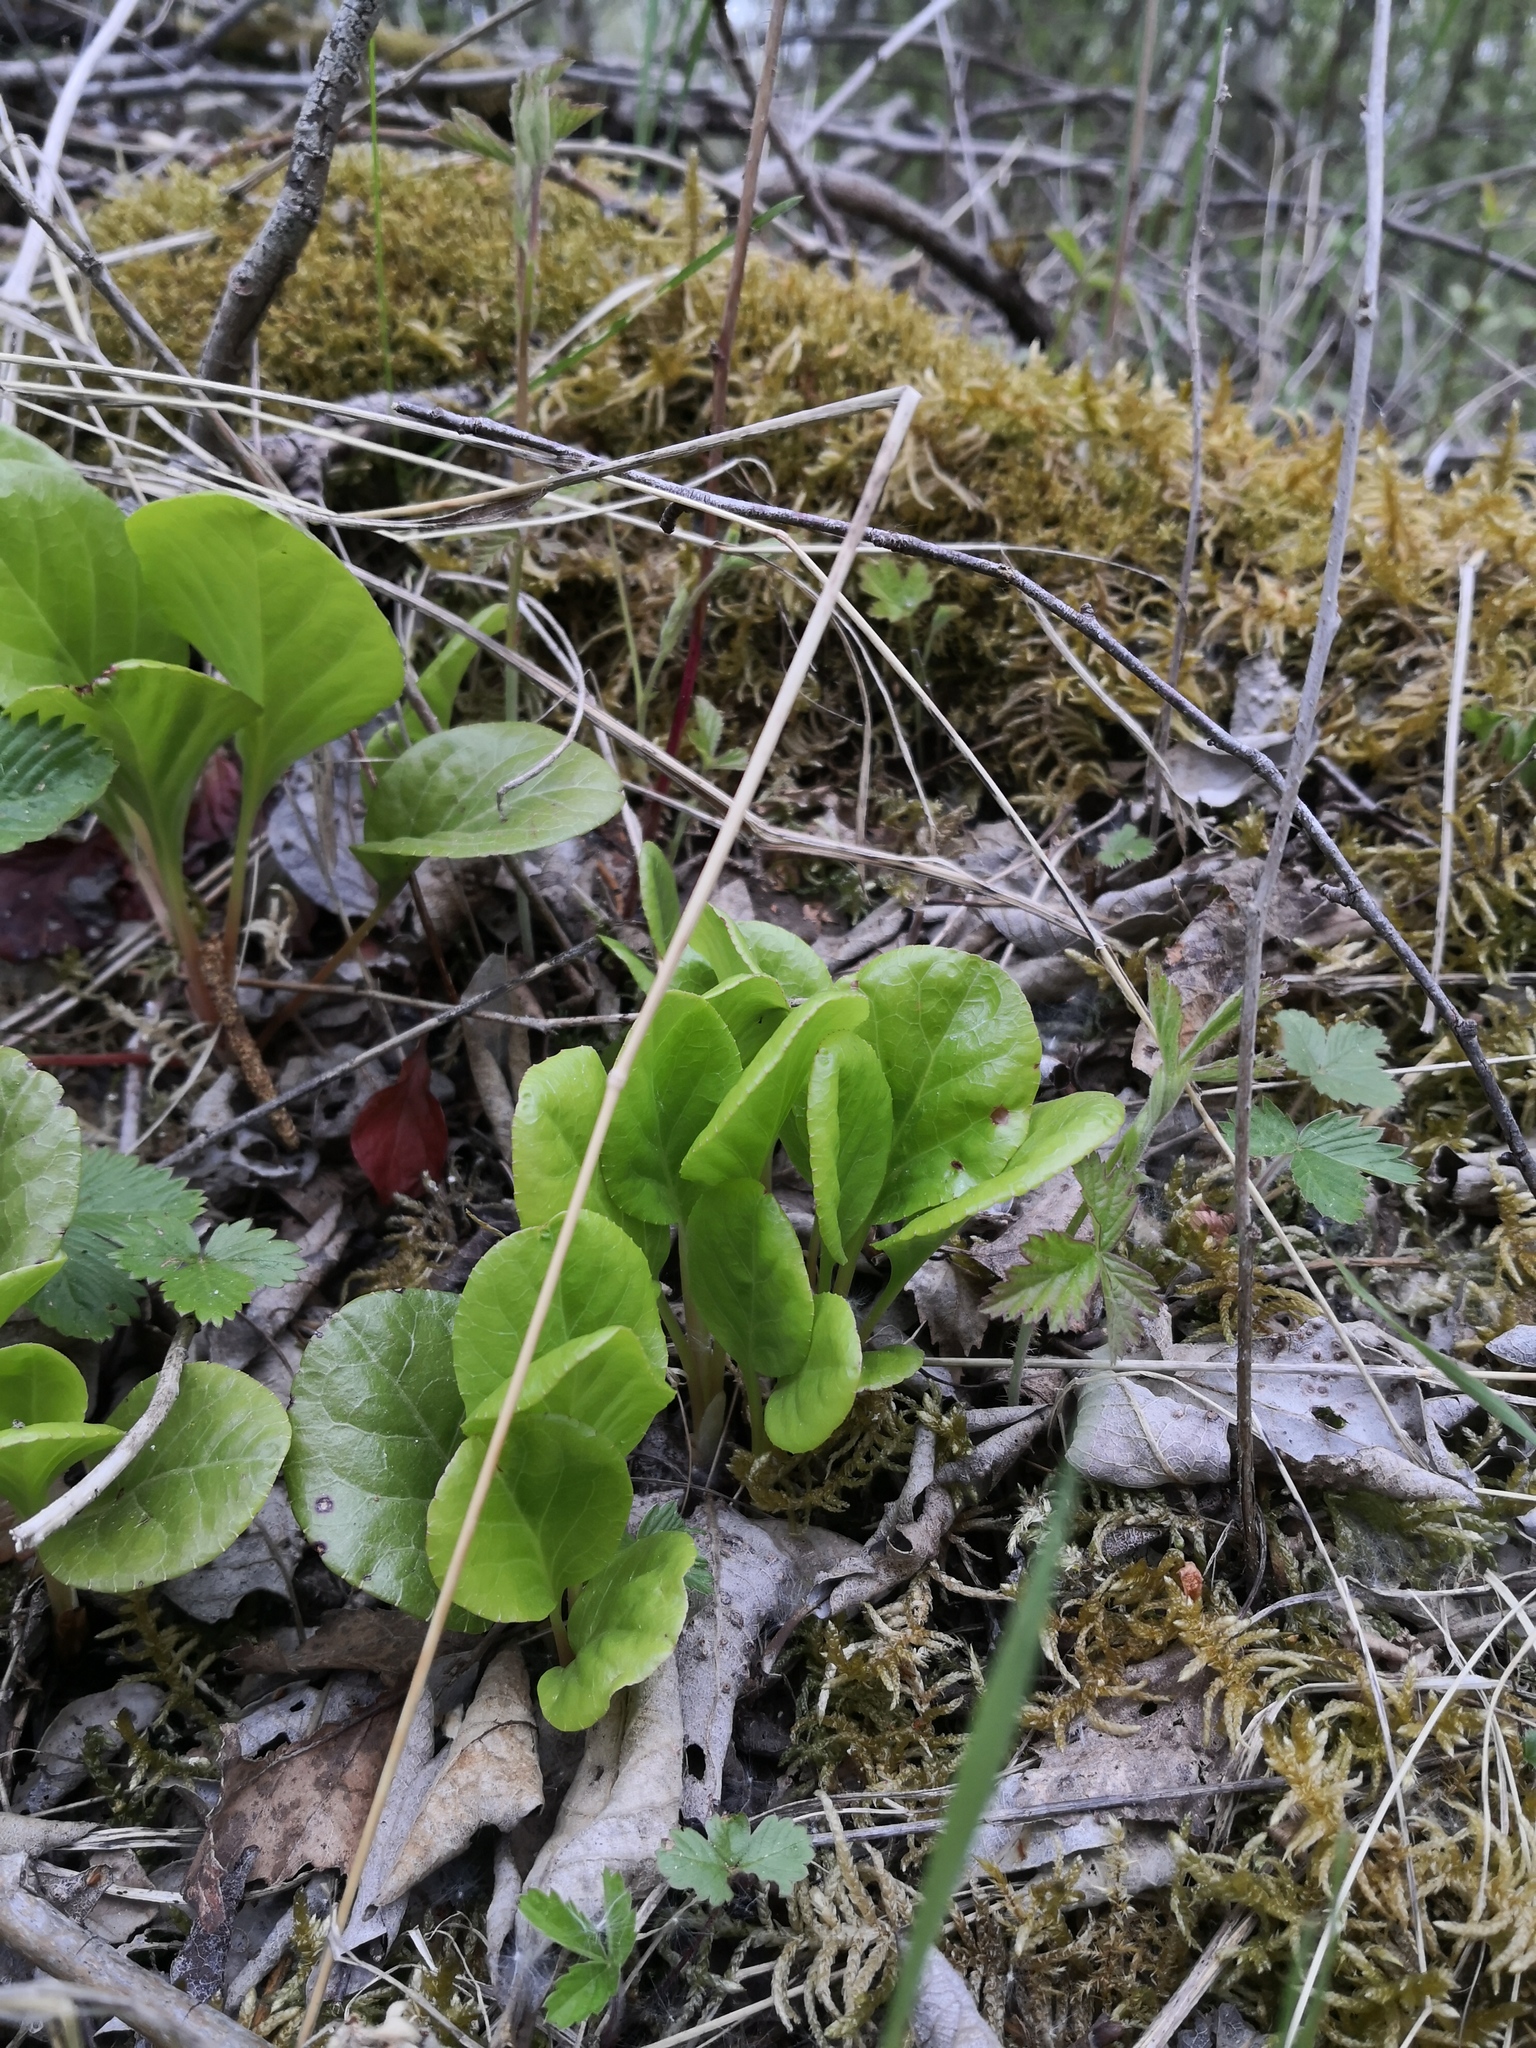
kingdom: Plantae
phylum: Tracheophyta
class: Magnoliopsida
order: Ericales
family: Ericaceae
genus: Pyrola
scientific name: Pyrola rotundifolia
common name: Round-leaved wintergreen
